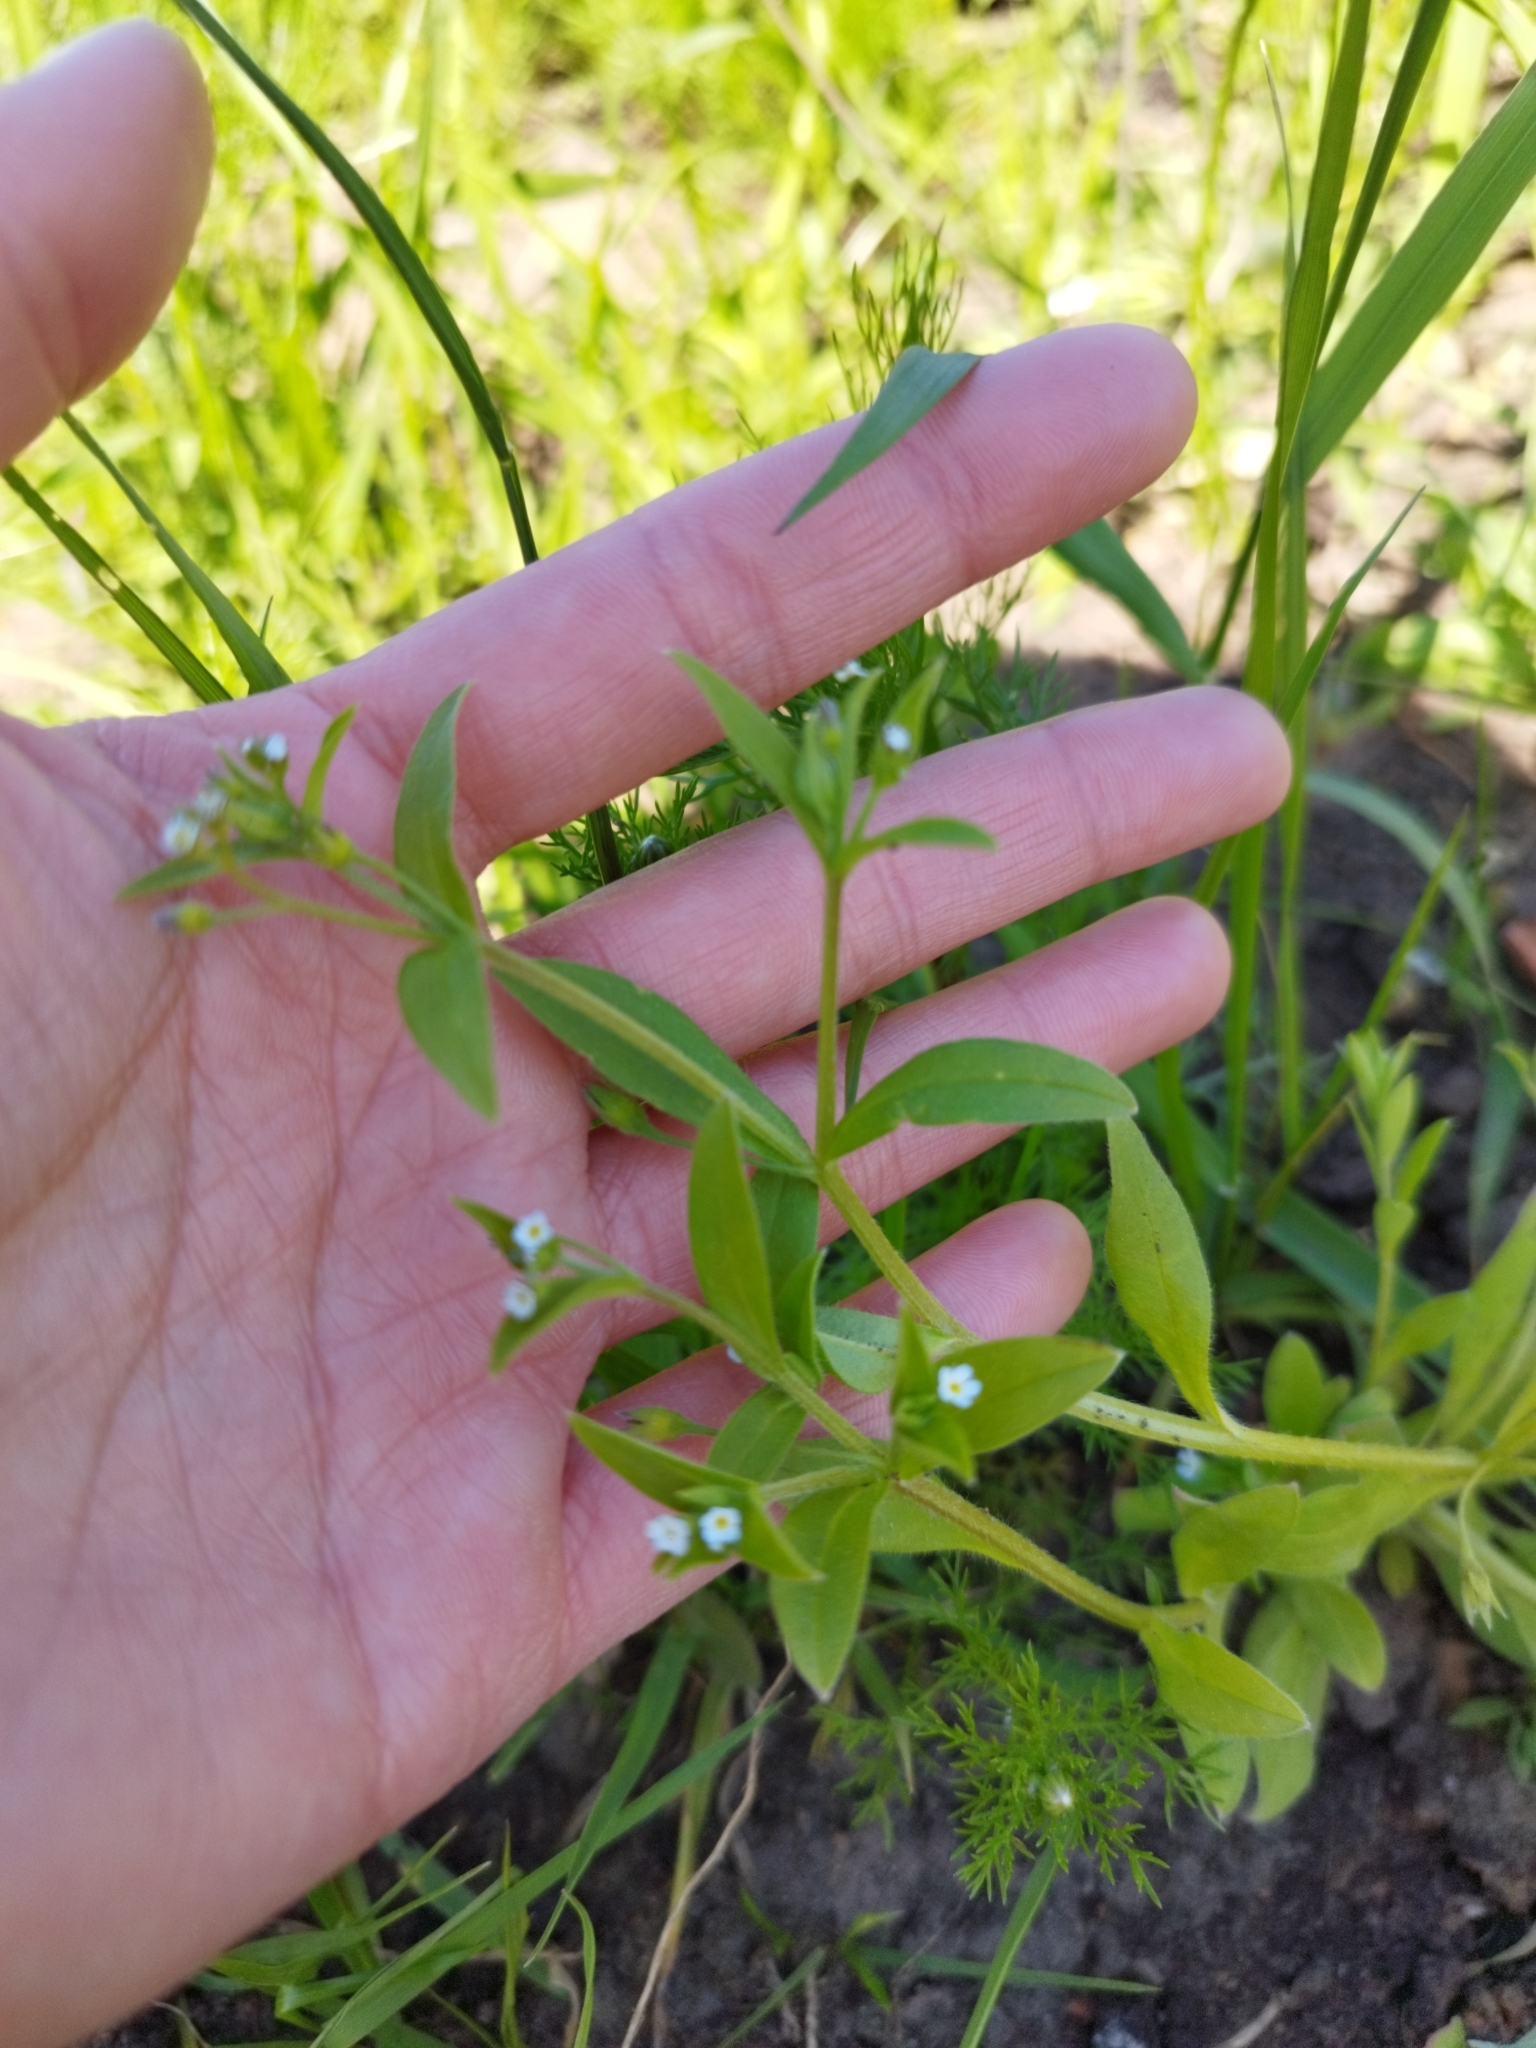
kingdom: Plantae
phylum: Tracheophyta
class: Magnoliopsida
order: Boraginales
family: Boraginaceae
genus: Myosotis
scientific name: Myosotis sparsiflora
